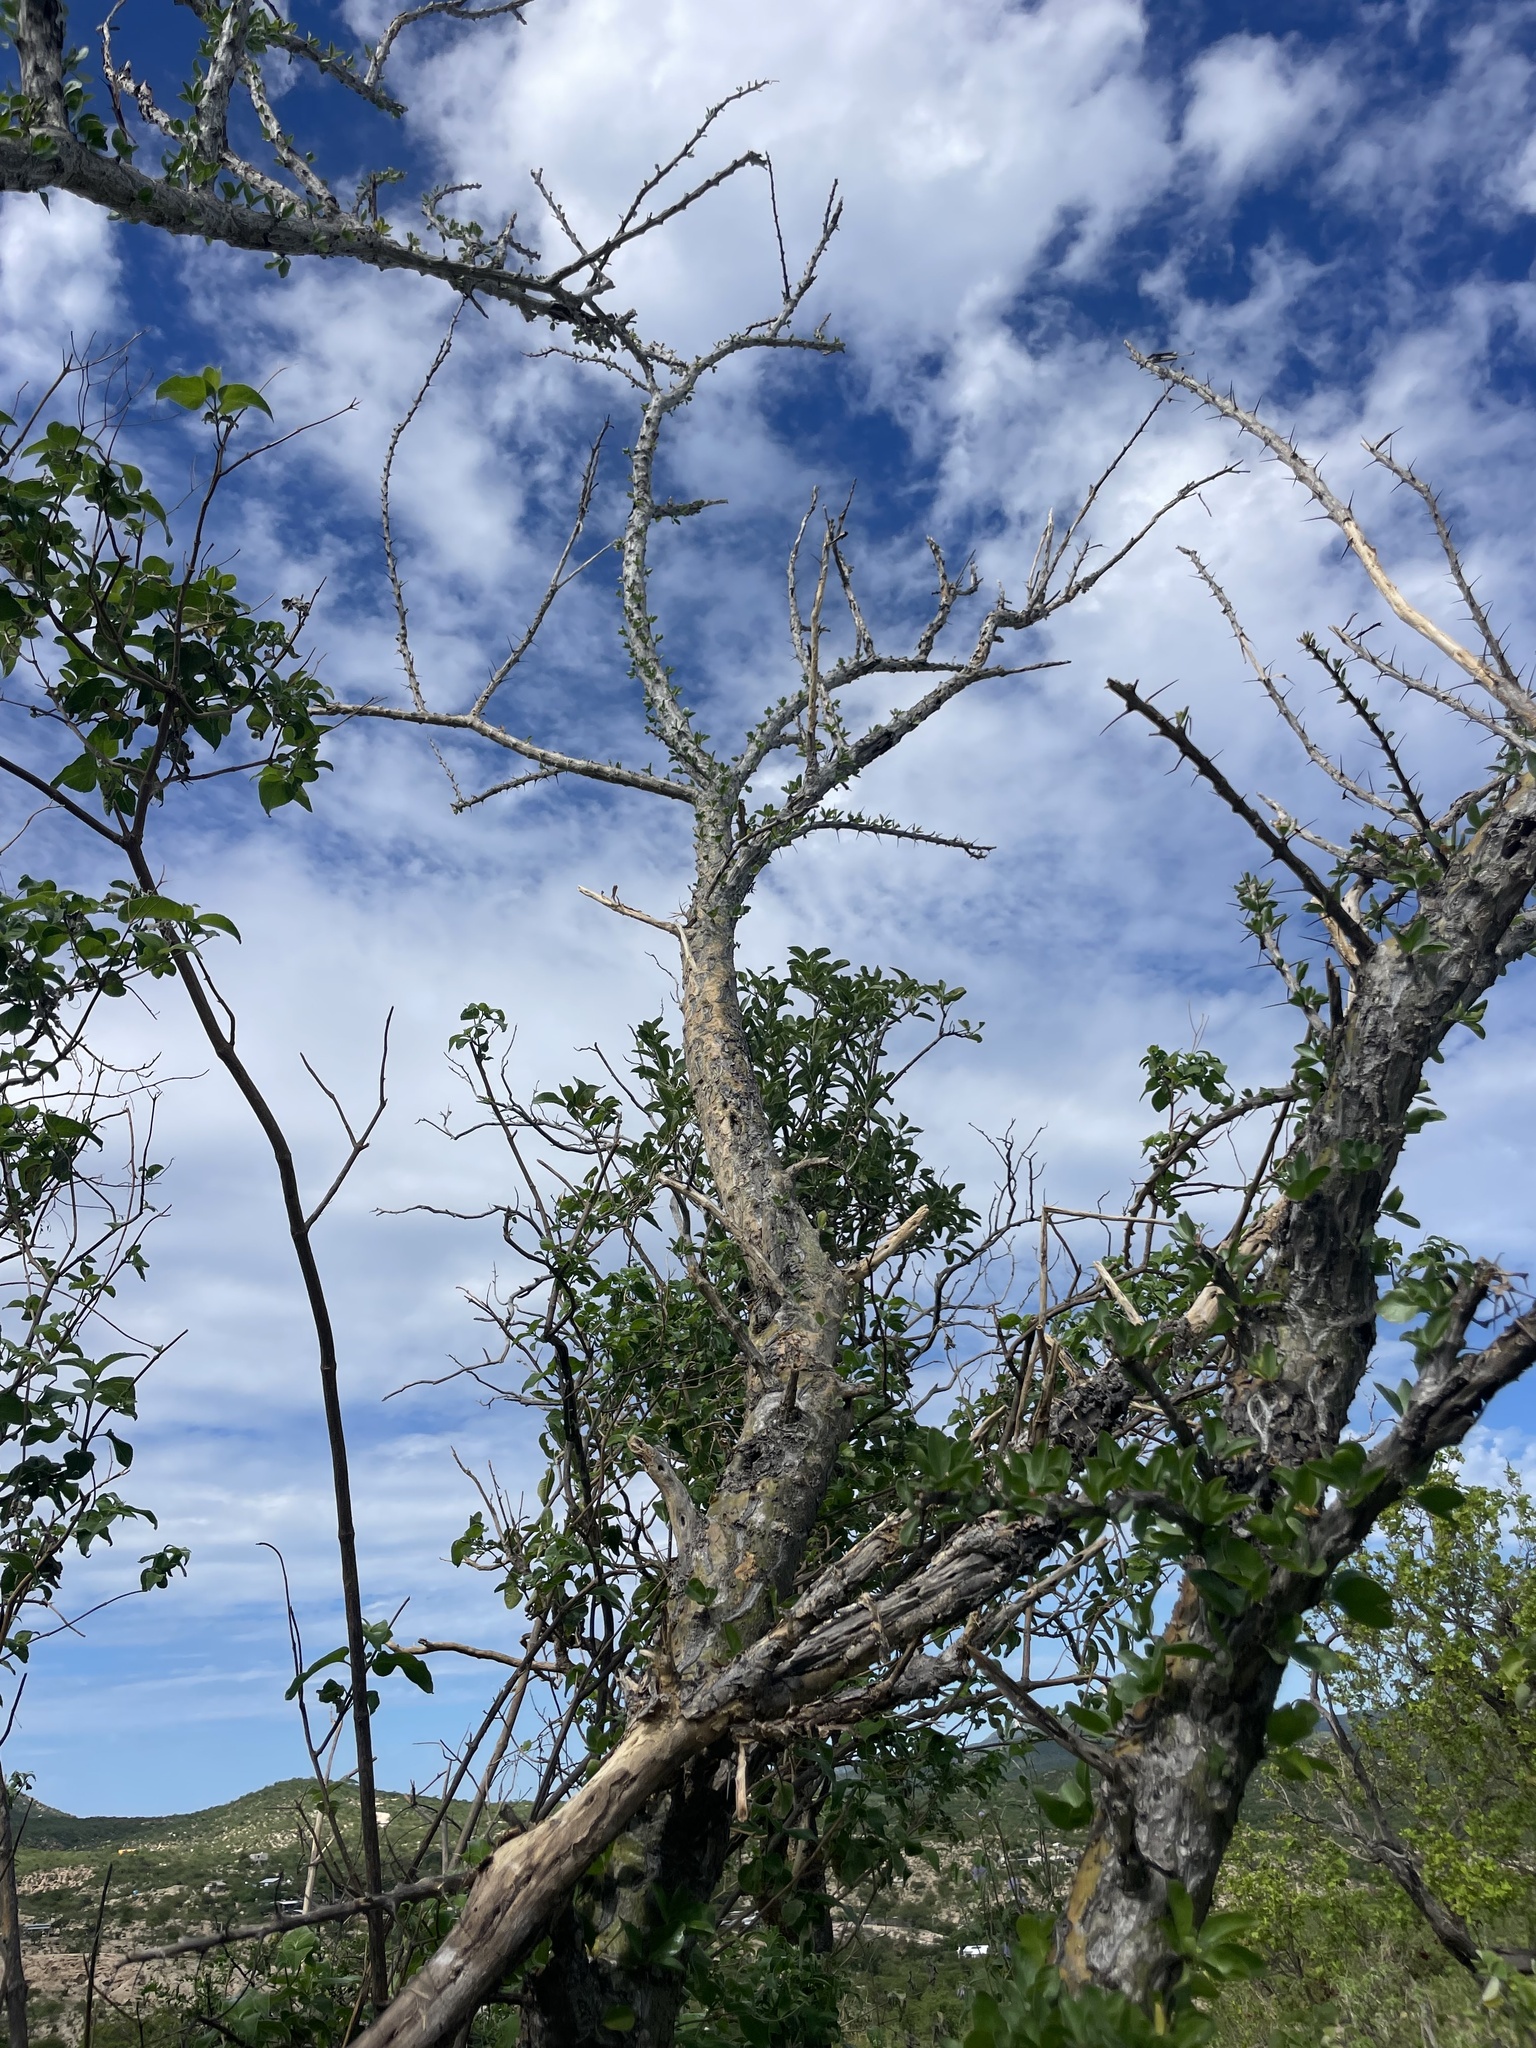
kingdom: Plantae
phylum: Tracheophyta
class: Magnoliopsida
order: Malpighiales
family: Euphorbiaceae
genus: Adelia
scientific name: Adelia brandegeei
